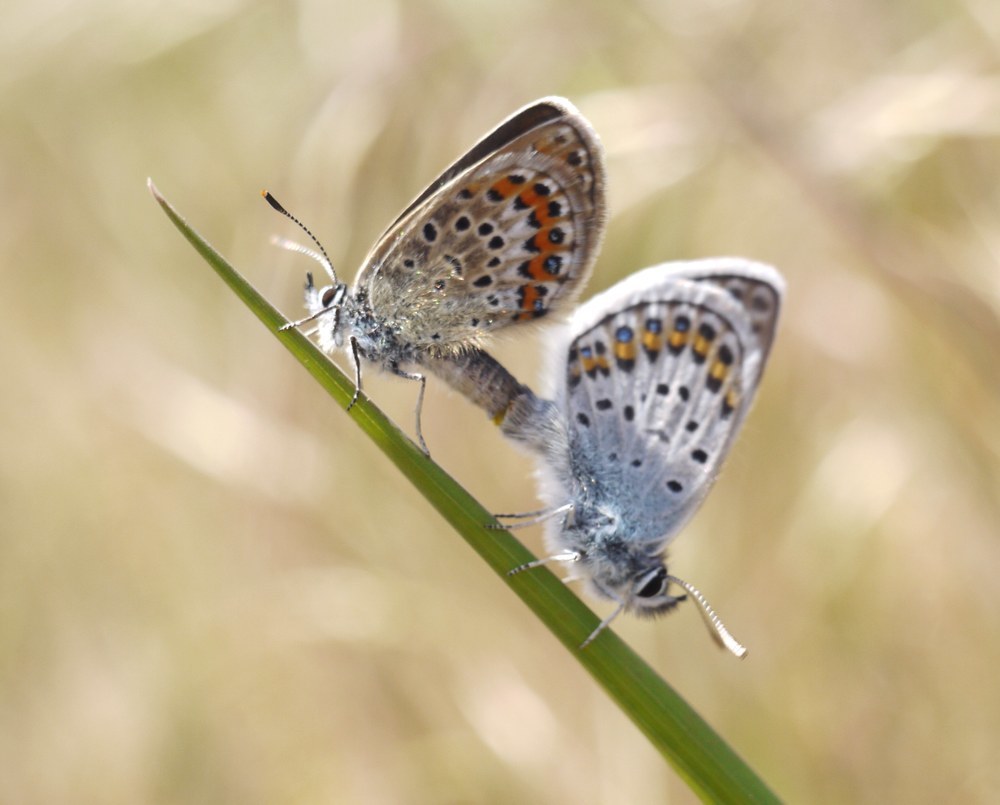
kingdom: Animalia
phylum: Arthropoda
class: Insecta
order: Lepidoptera
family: Lycaenidae
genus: Plebejus
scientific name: Plebejus argus
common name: Silver-studded blue
